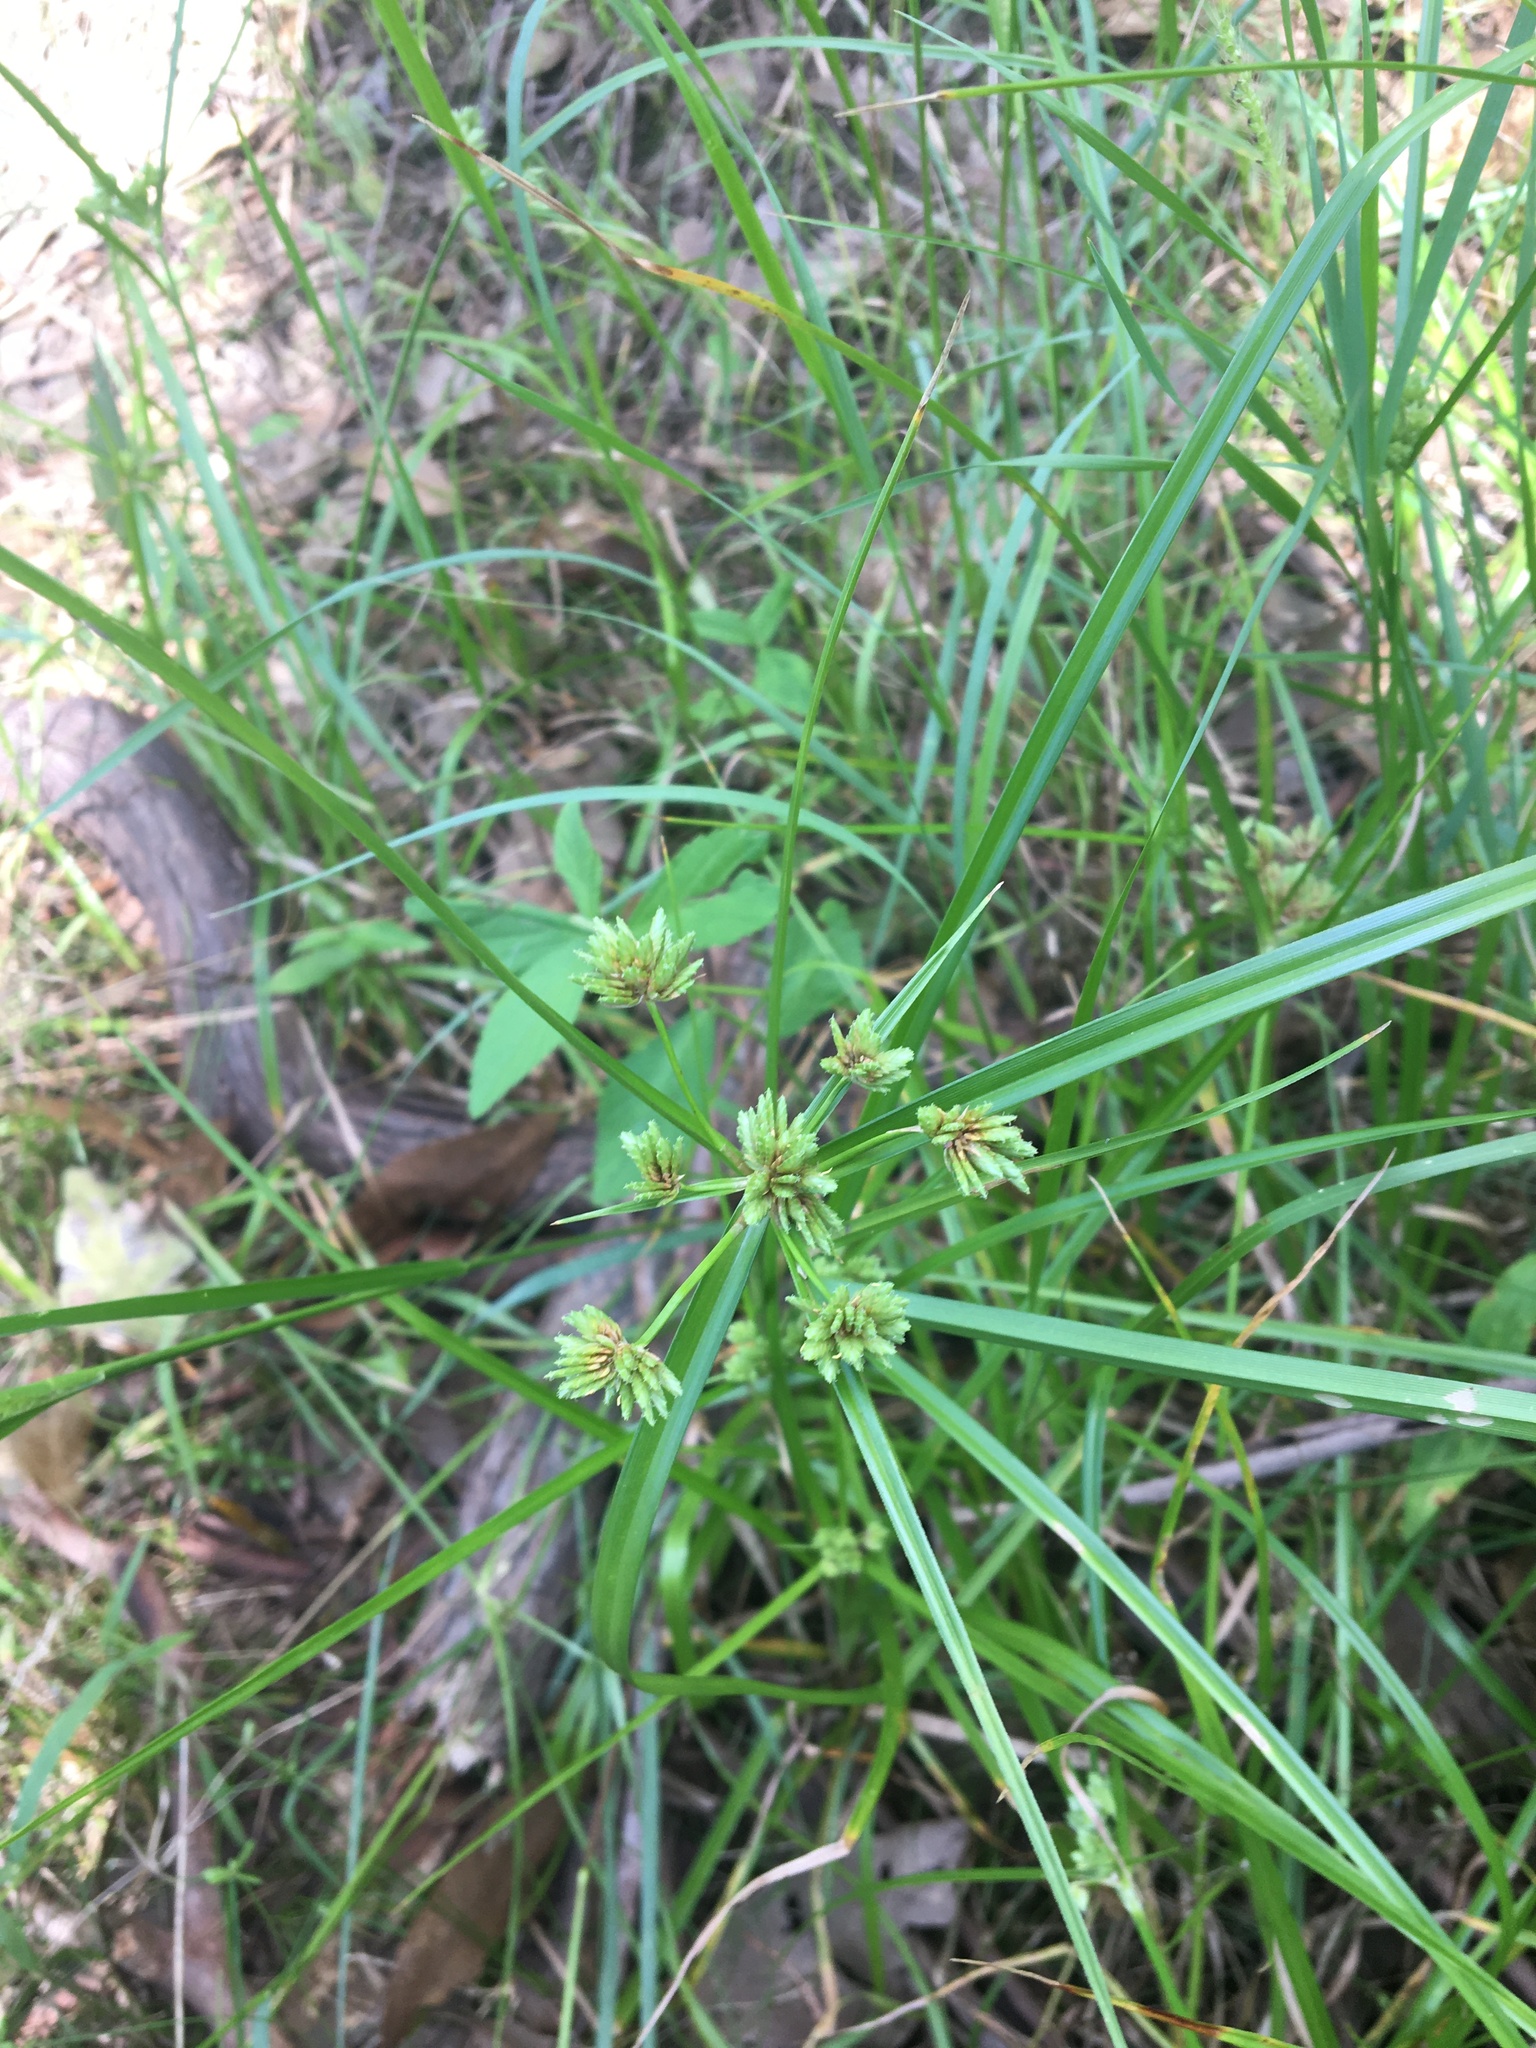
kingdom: Plantae
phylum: Tracheophyta
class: Liliopsida
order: Poales
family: Cyperaceae
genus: Cyperus
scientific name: Cyperus eragrostis
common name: Tall flatsedge
